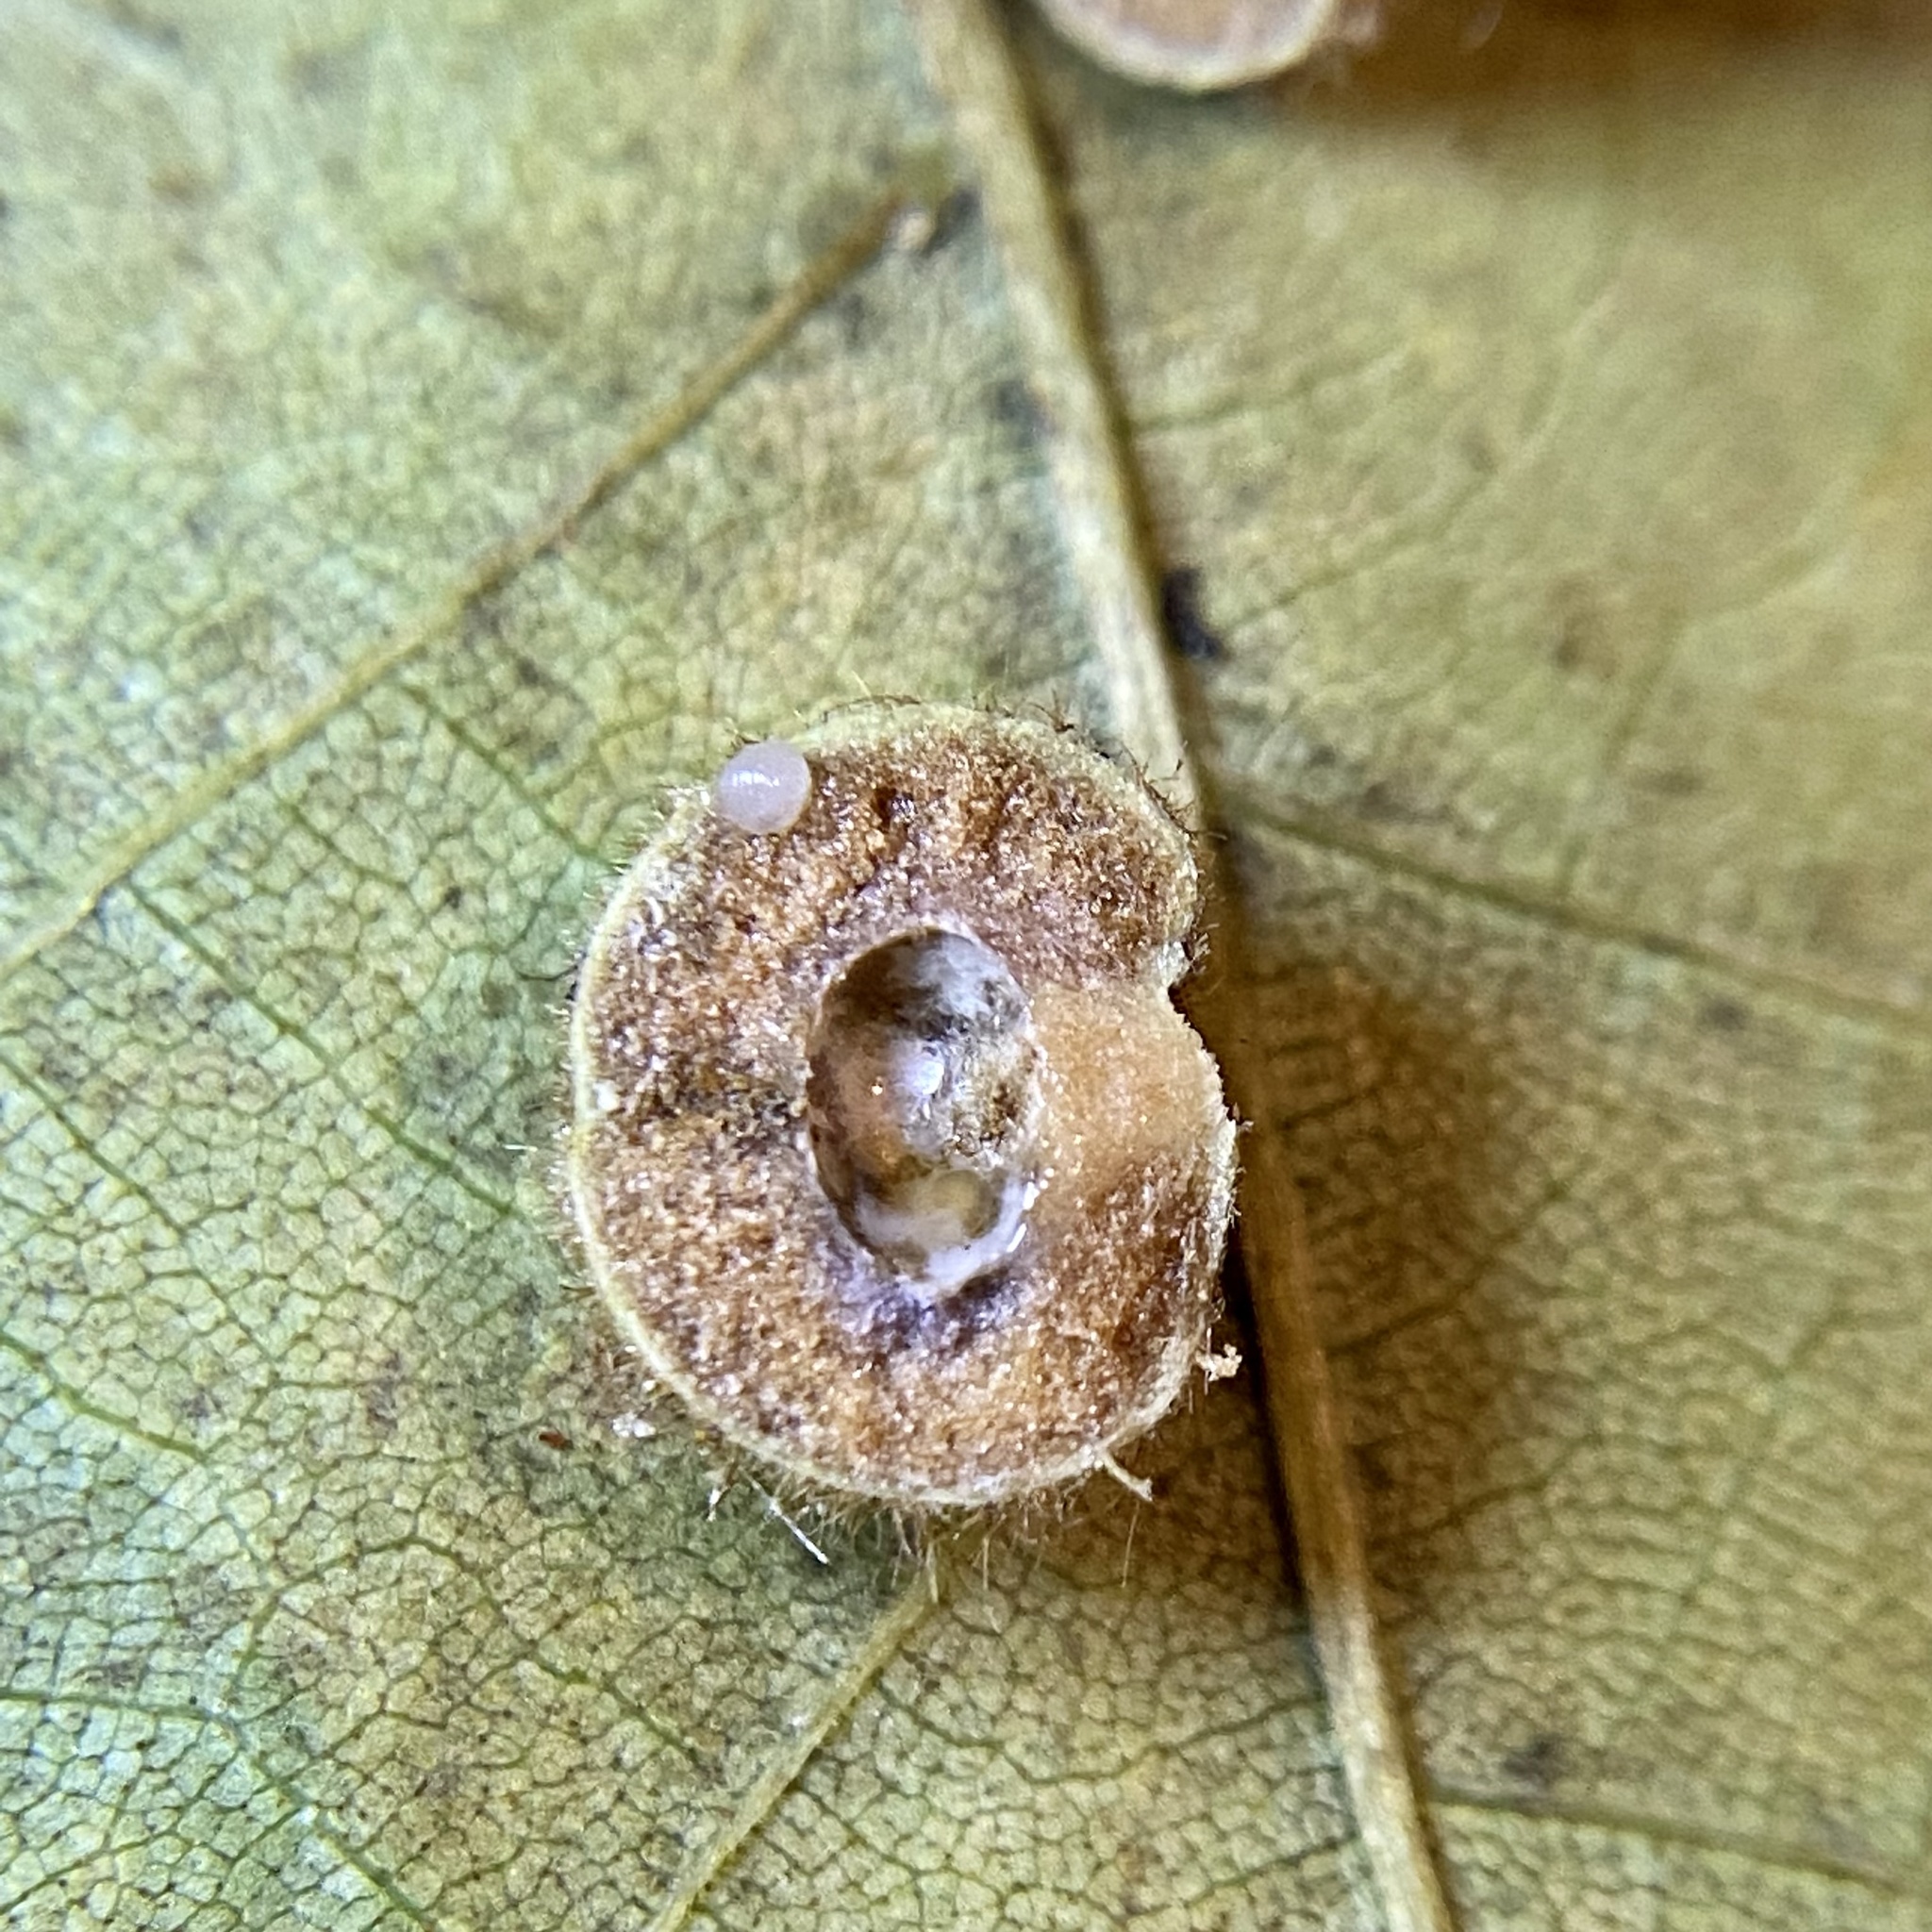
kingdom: Animalia
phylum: Arthropoda
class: Insecta
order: Diptera
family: Cecidomyiidae
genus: Caryomyia
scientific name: Caryomyia spherica
